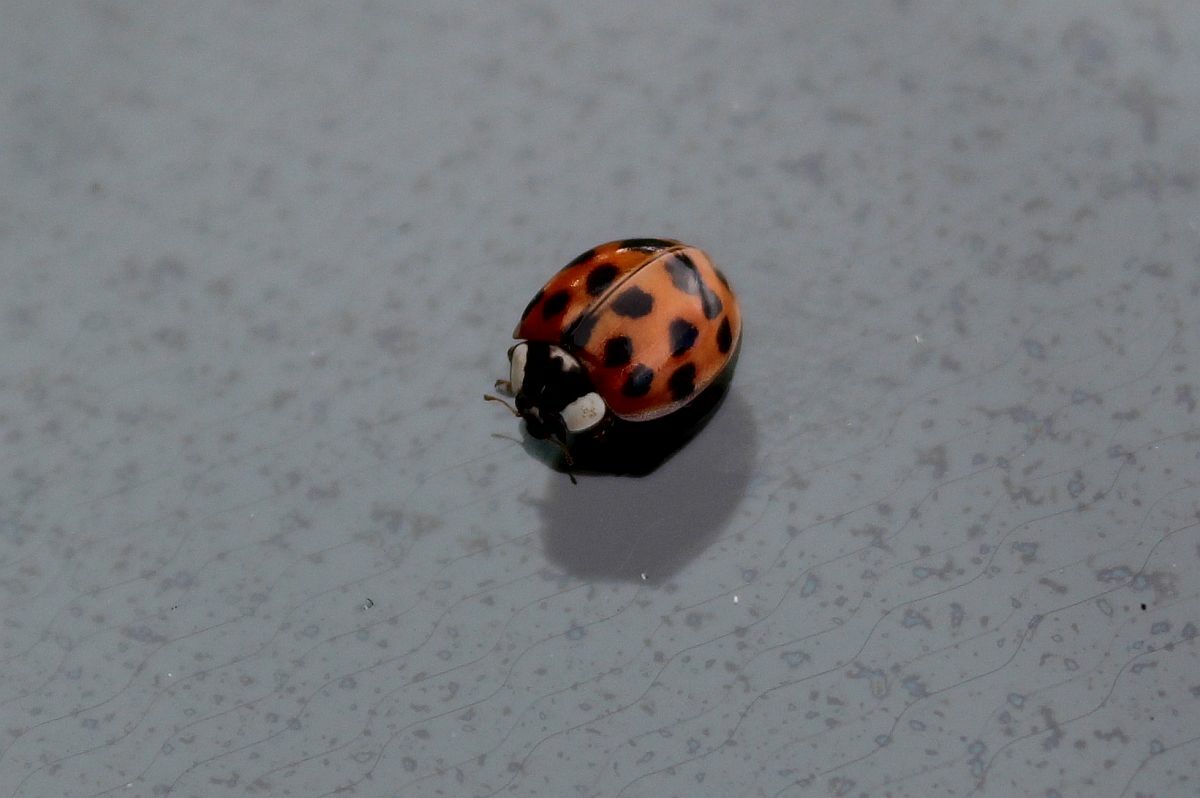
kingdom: Animalia
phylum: Arthropoda
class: Insecta
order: Coleoptera
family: Coccinellidae
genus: Harmonia
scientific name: Harmonia axyridis
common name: Harlequin ladybird
